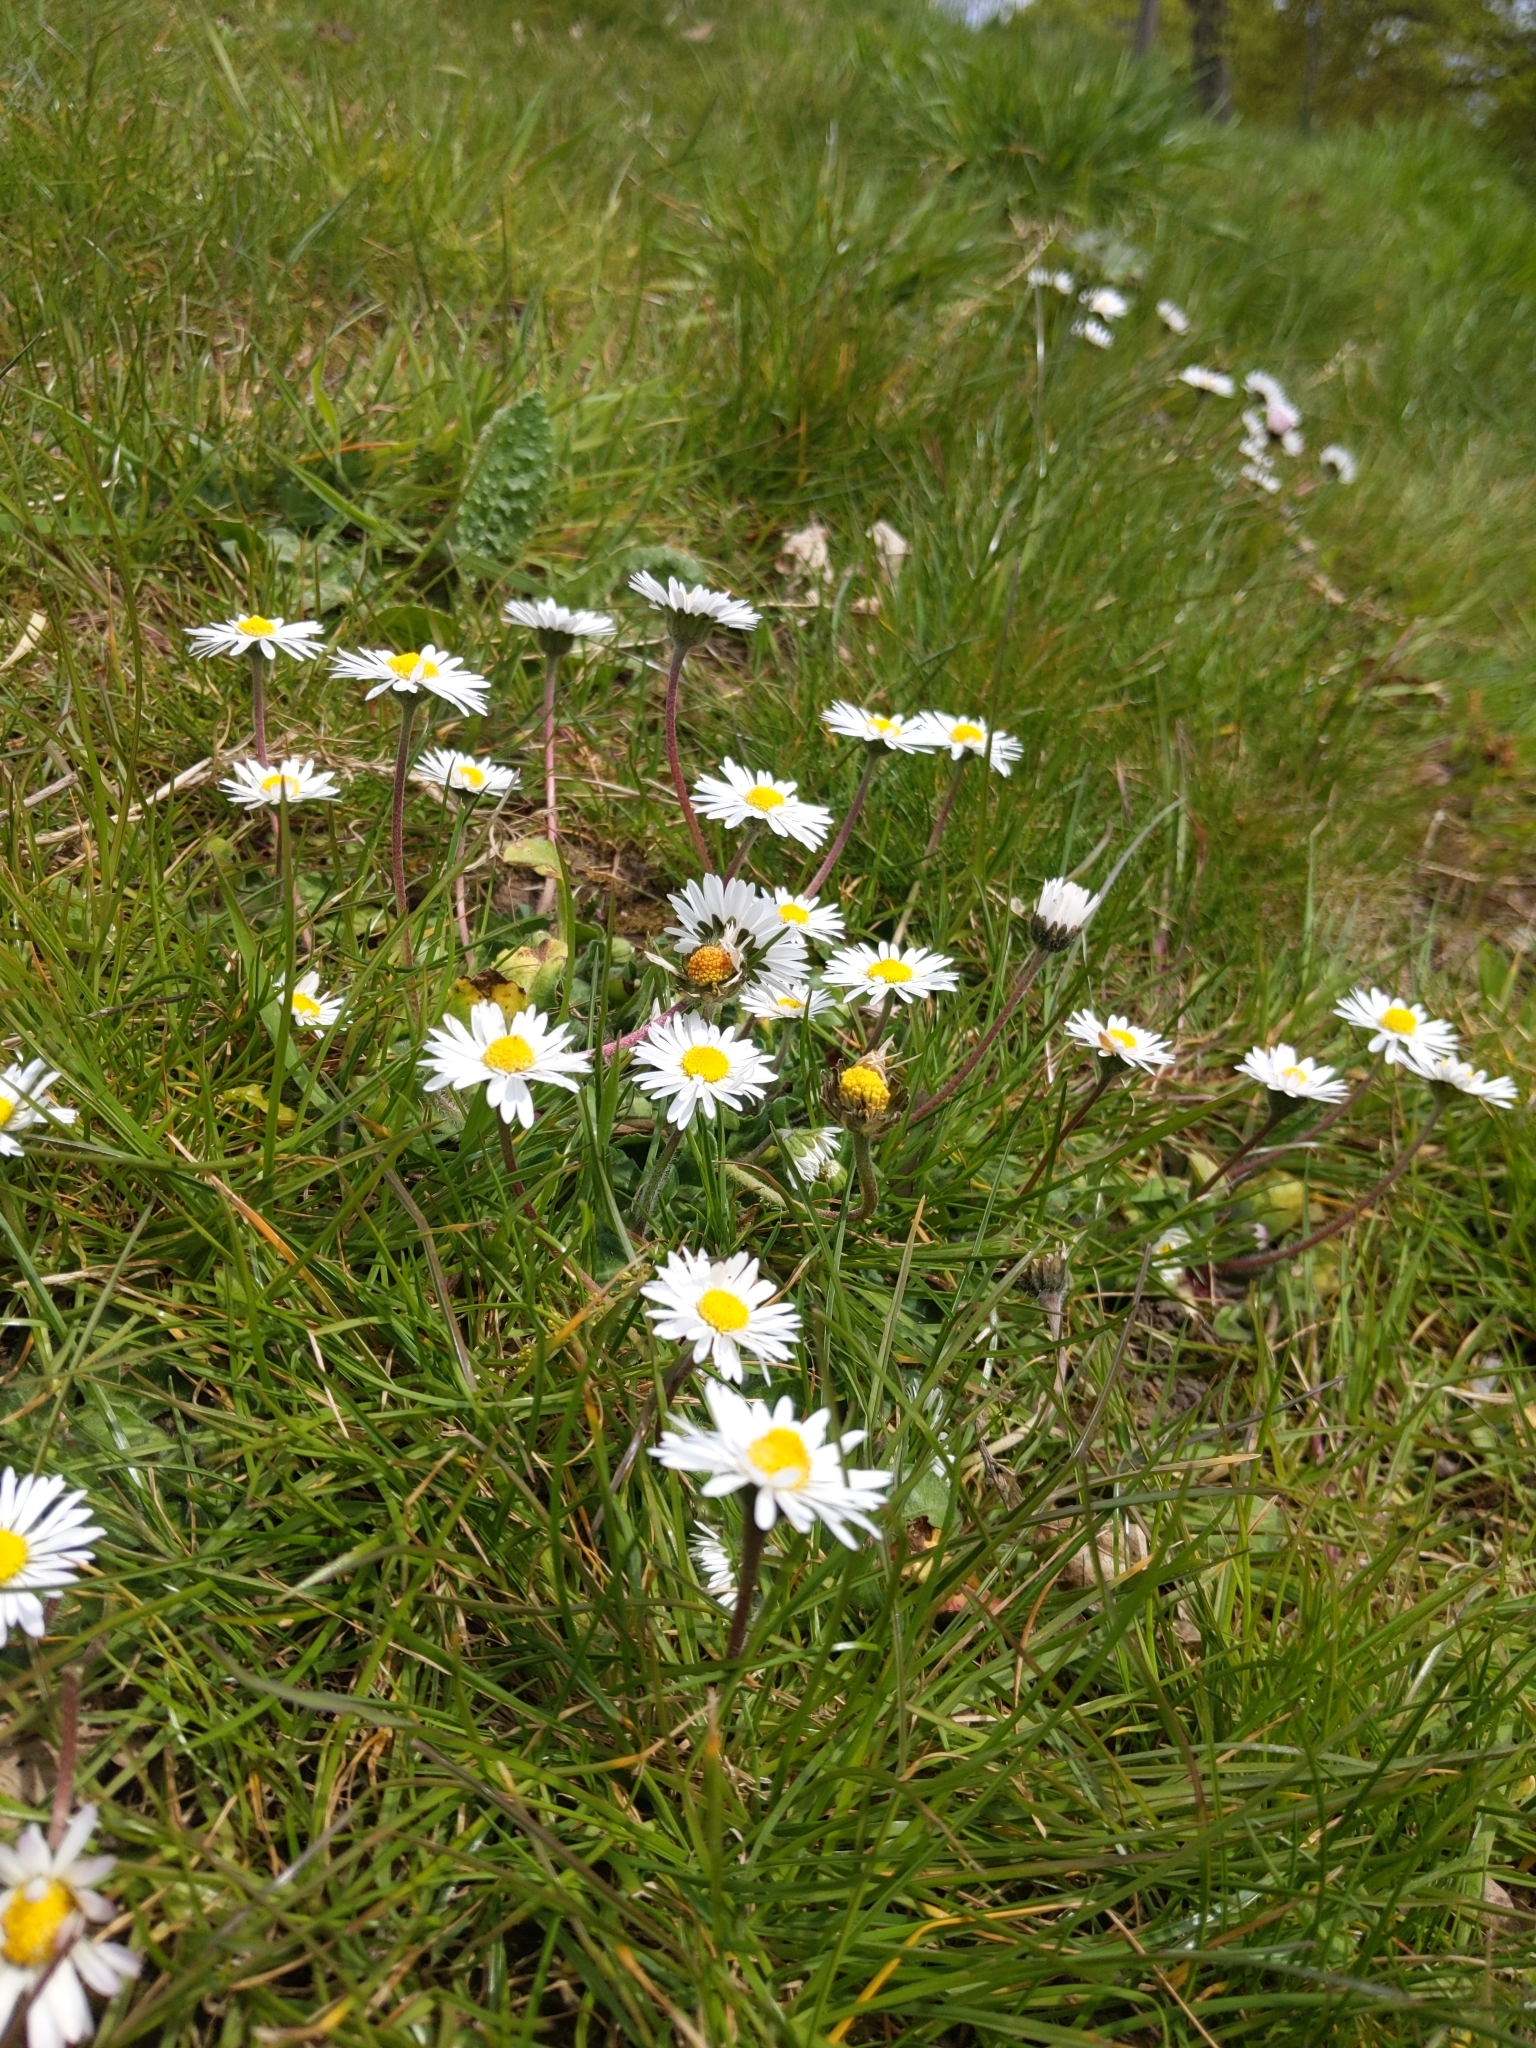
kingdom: Plantae
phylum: Tracheophyta
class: Magnoliopsida
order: Asterales
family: Asteraceae
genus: Bellis
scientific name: Bellis perennis
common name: Lawndaisy
